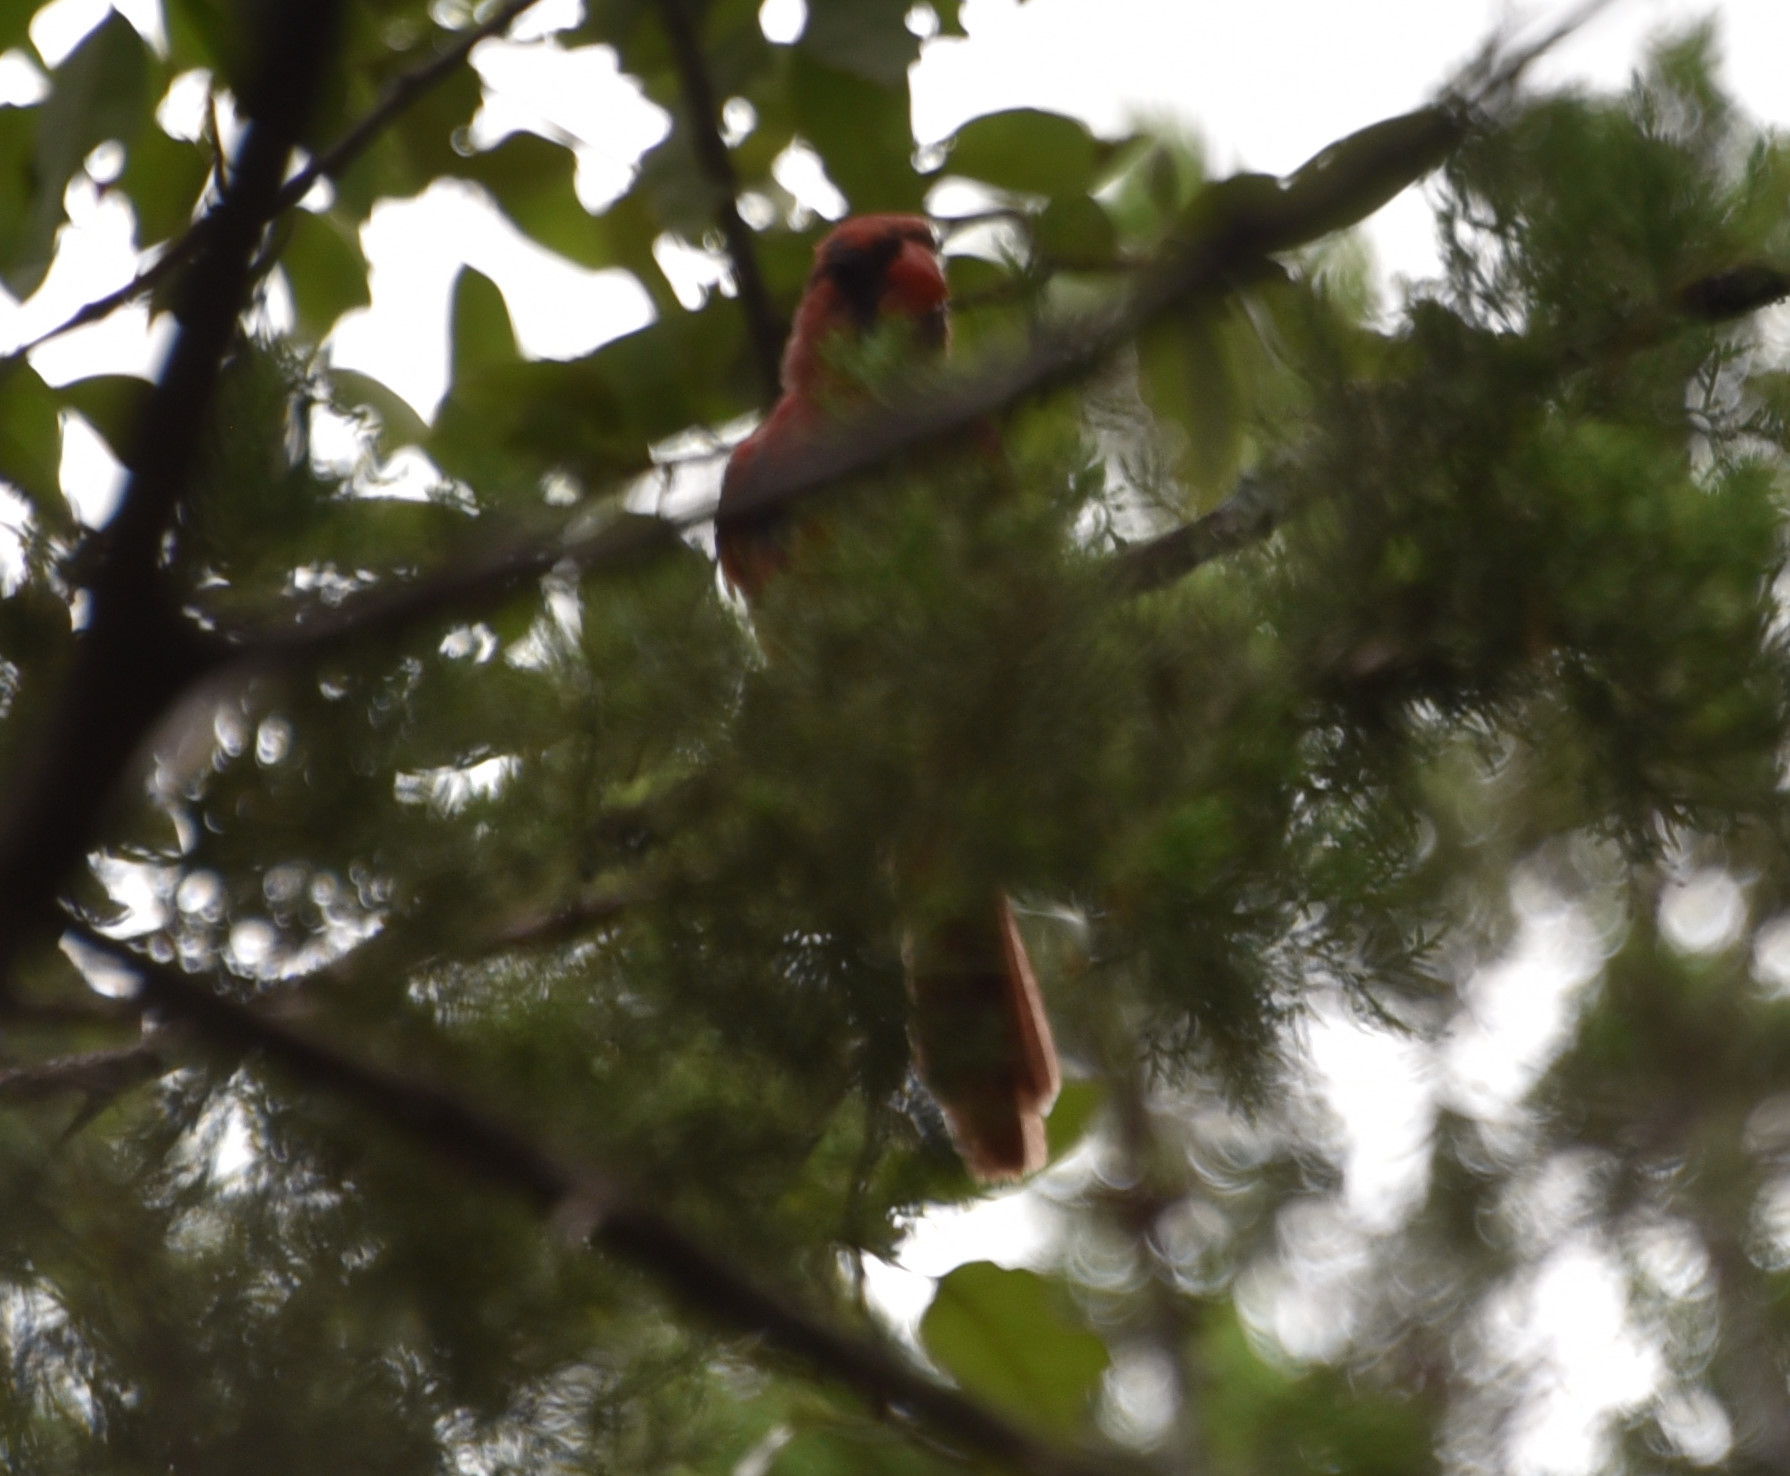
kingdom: Animalia
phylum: Chordata
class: Aves
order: Passeriformes
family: Cardinalidae
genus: Cardinalis
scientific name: Cardinalis cardinalis
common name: Northern cardinal
